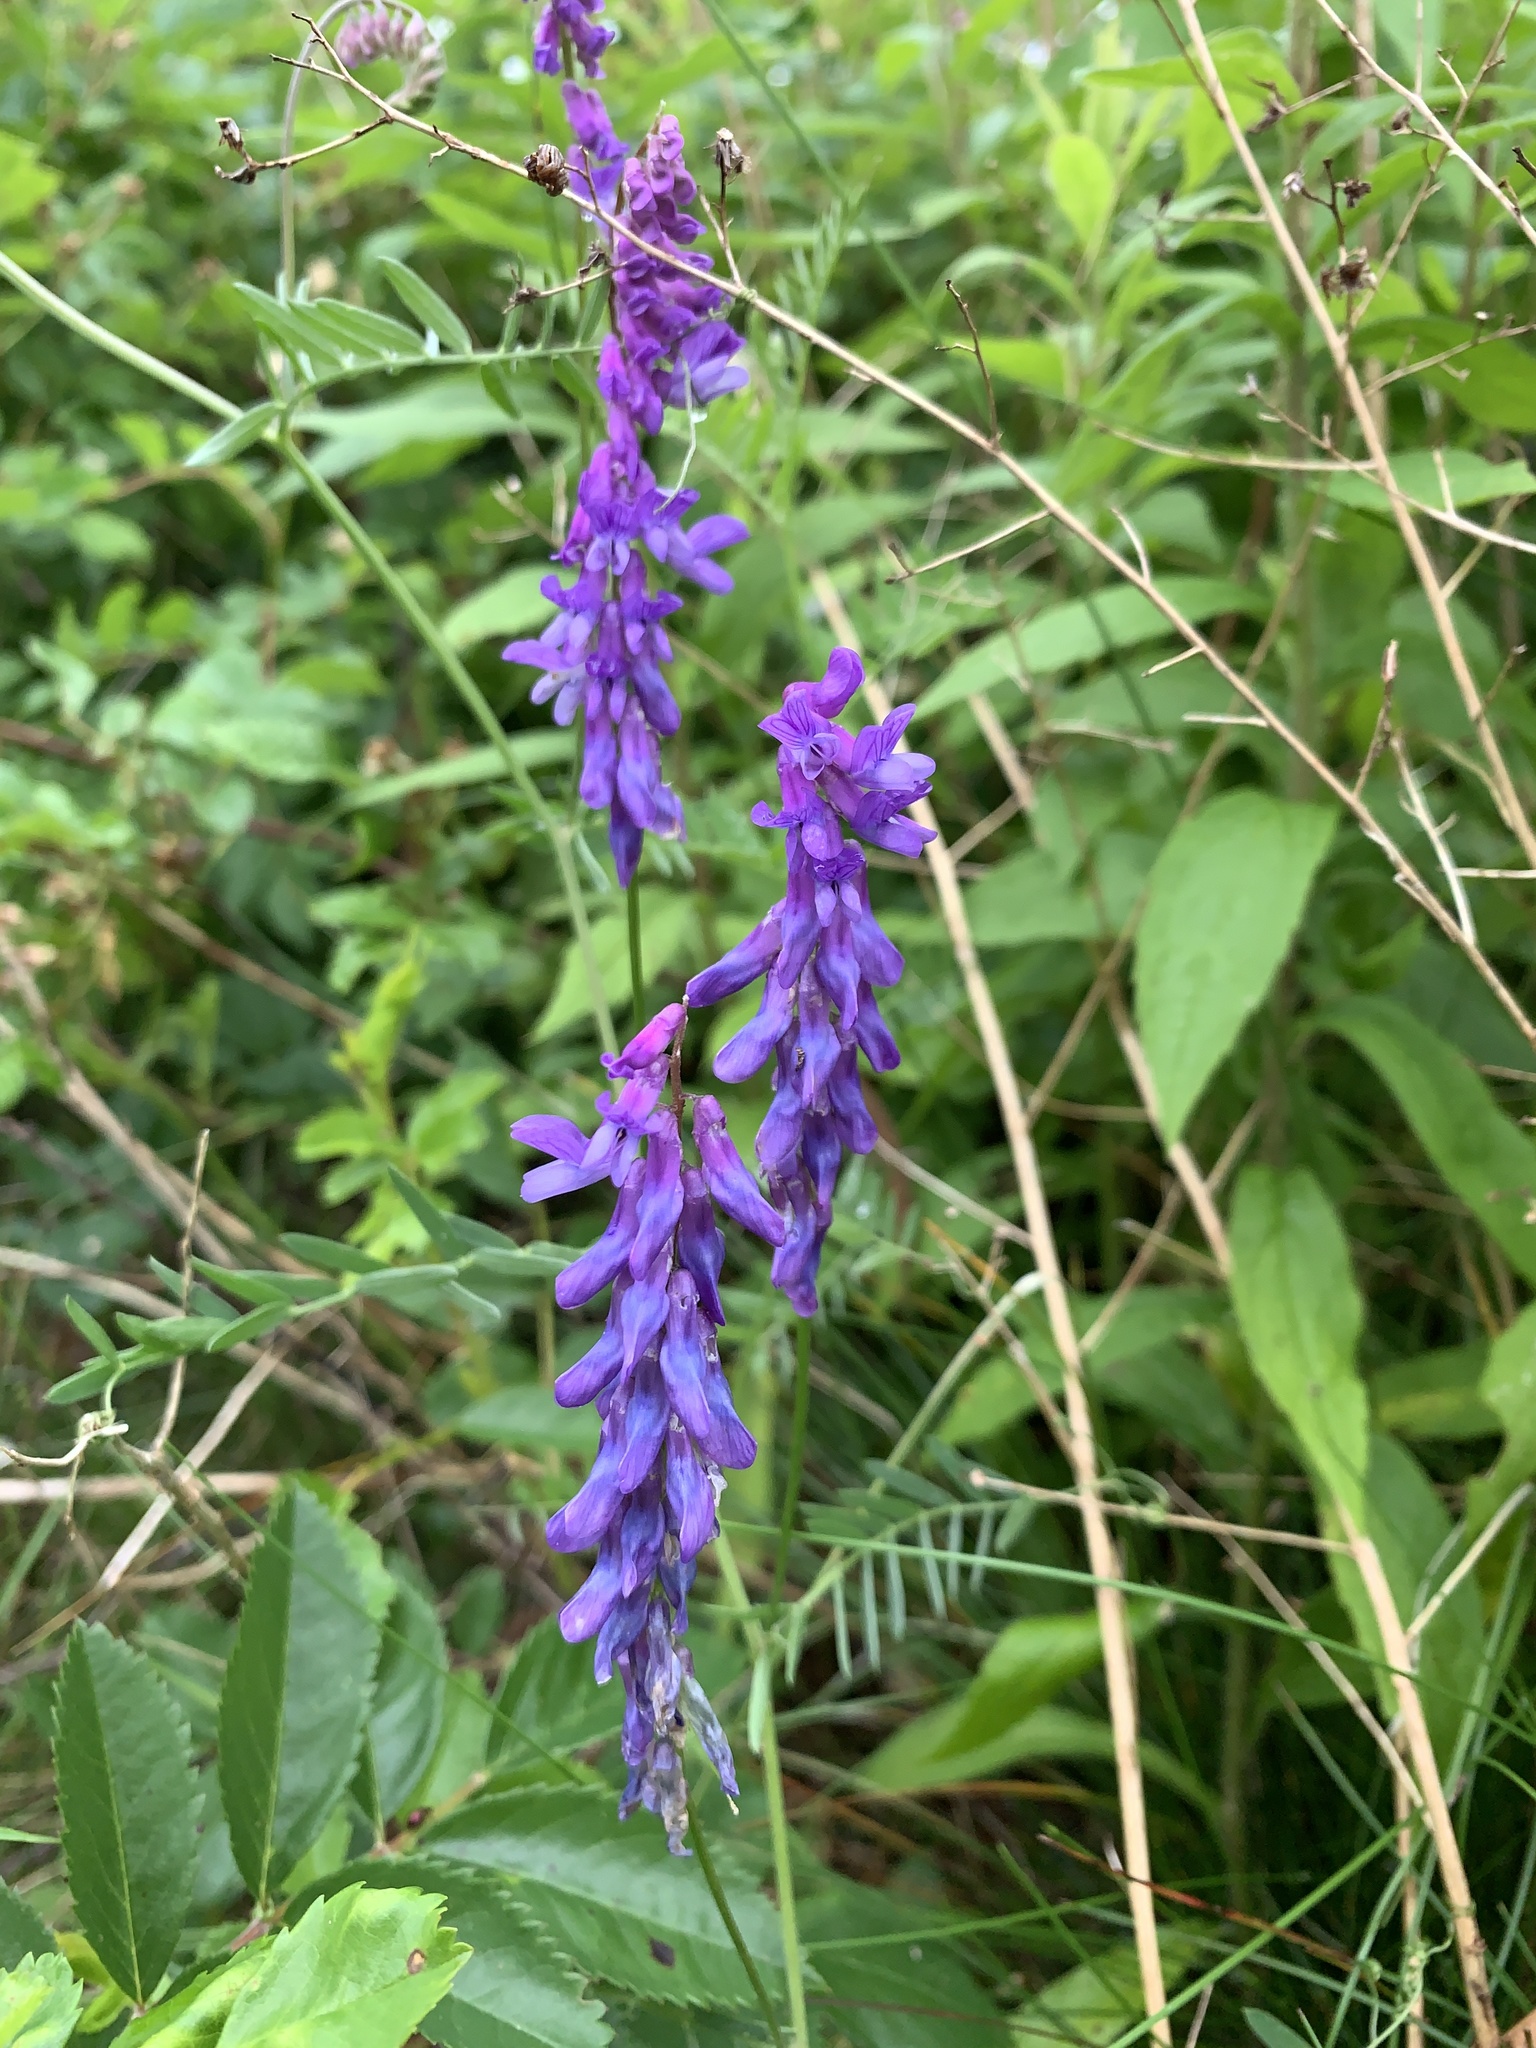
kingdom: Plantae
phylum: Tracheophyta
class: Magnoliopsida
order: Fabales
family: Fabaceae
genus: Vicia
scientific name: Vicia cracca
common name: Bird vetch
